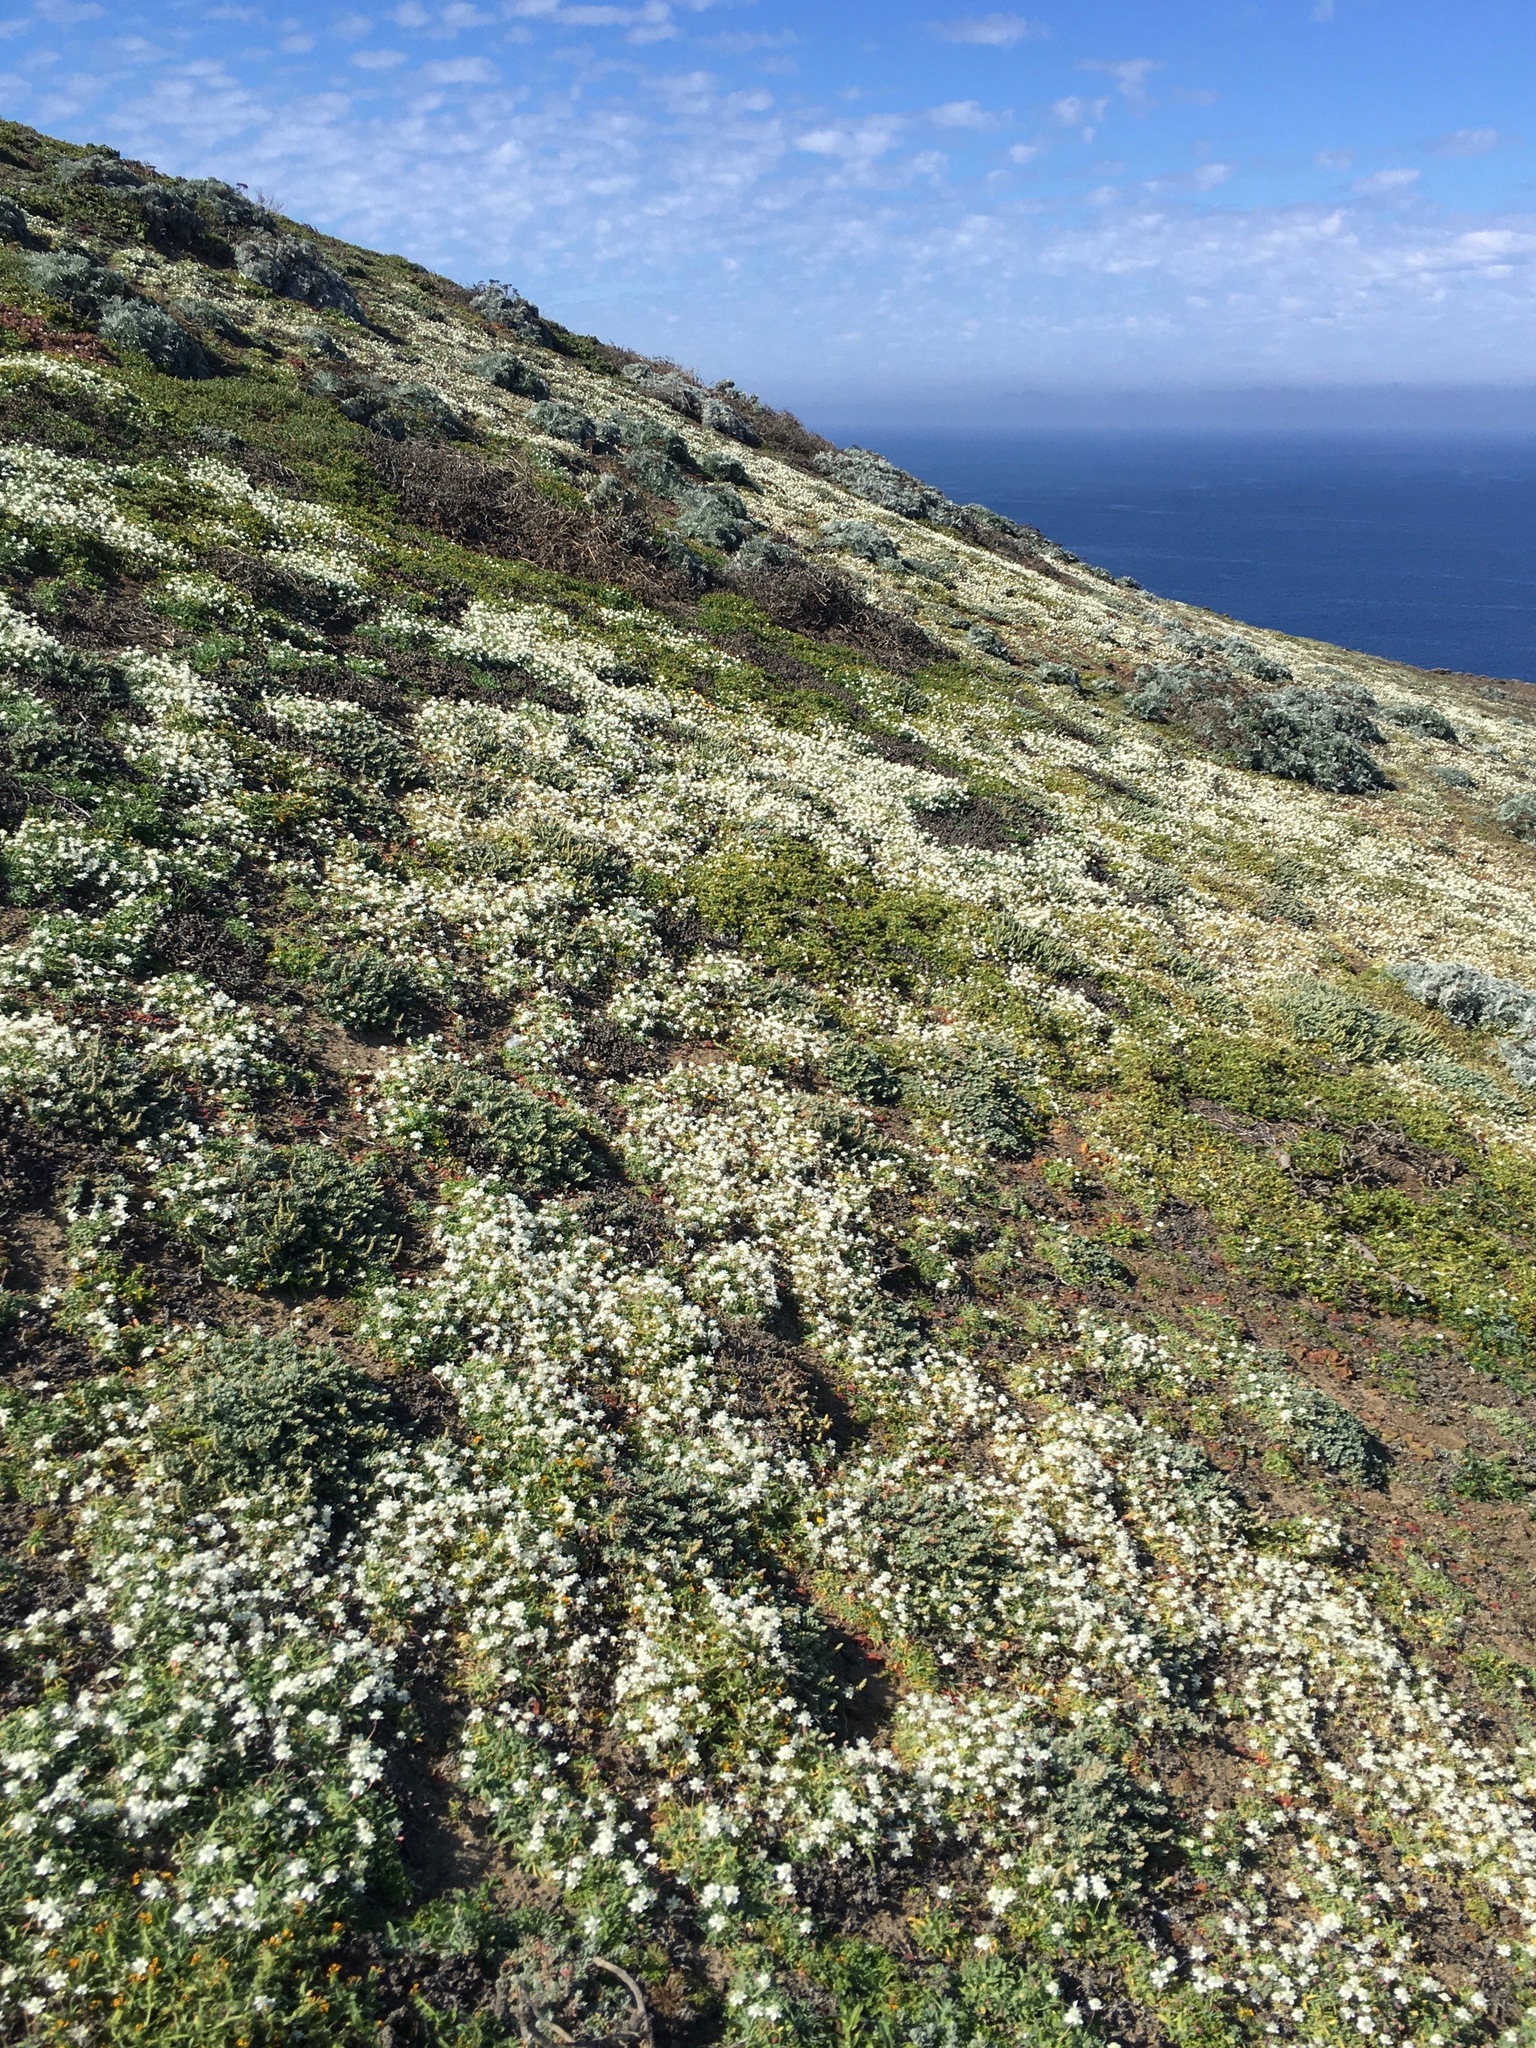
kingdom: Plantae
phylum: Tracheophyta
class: Magnoliopsida
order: Ranunculales
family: Papaveraceae
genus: Platystemon
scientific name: Platystemon californicus
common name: Cream-cups
